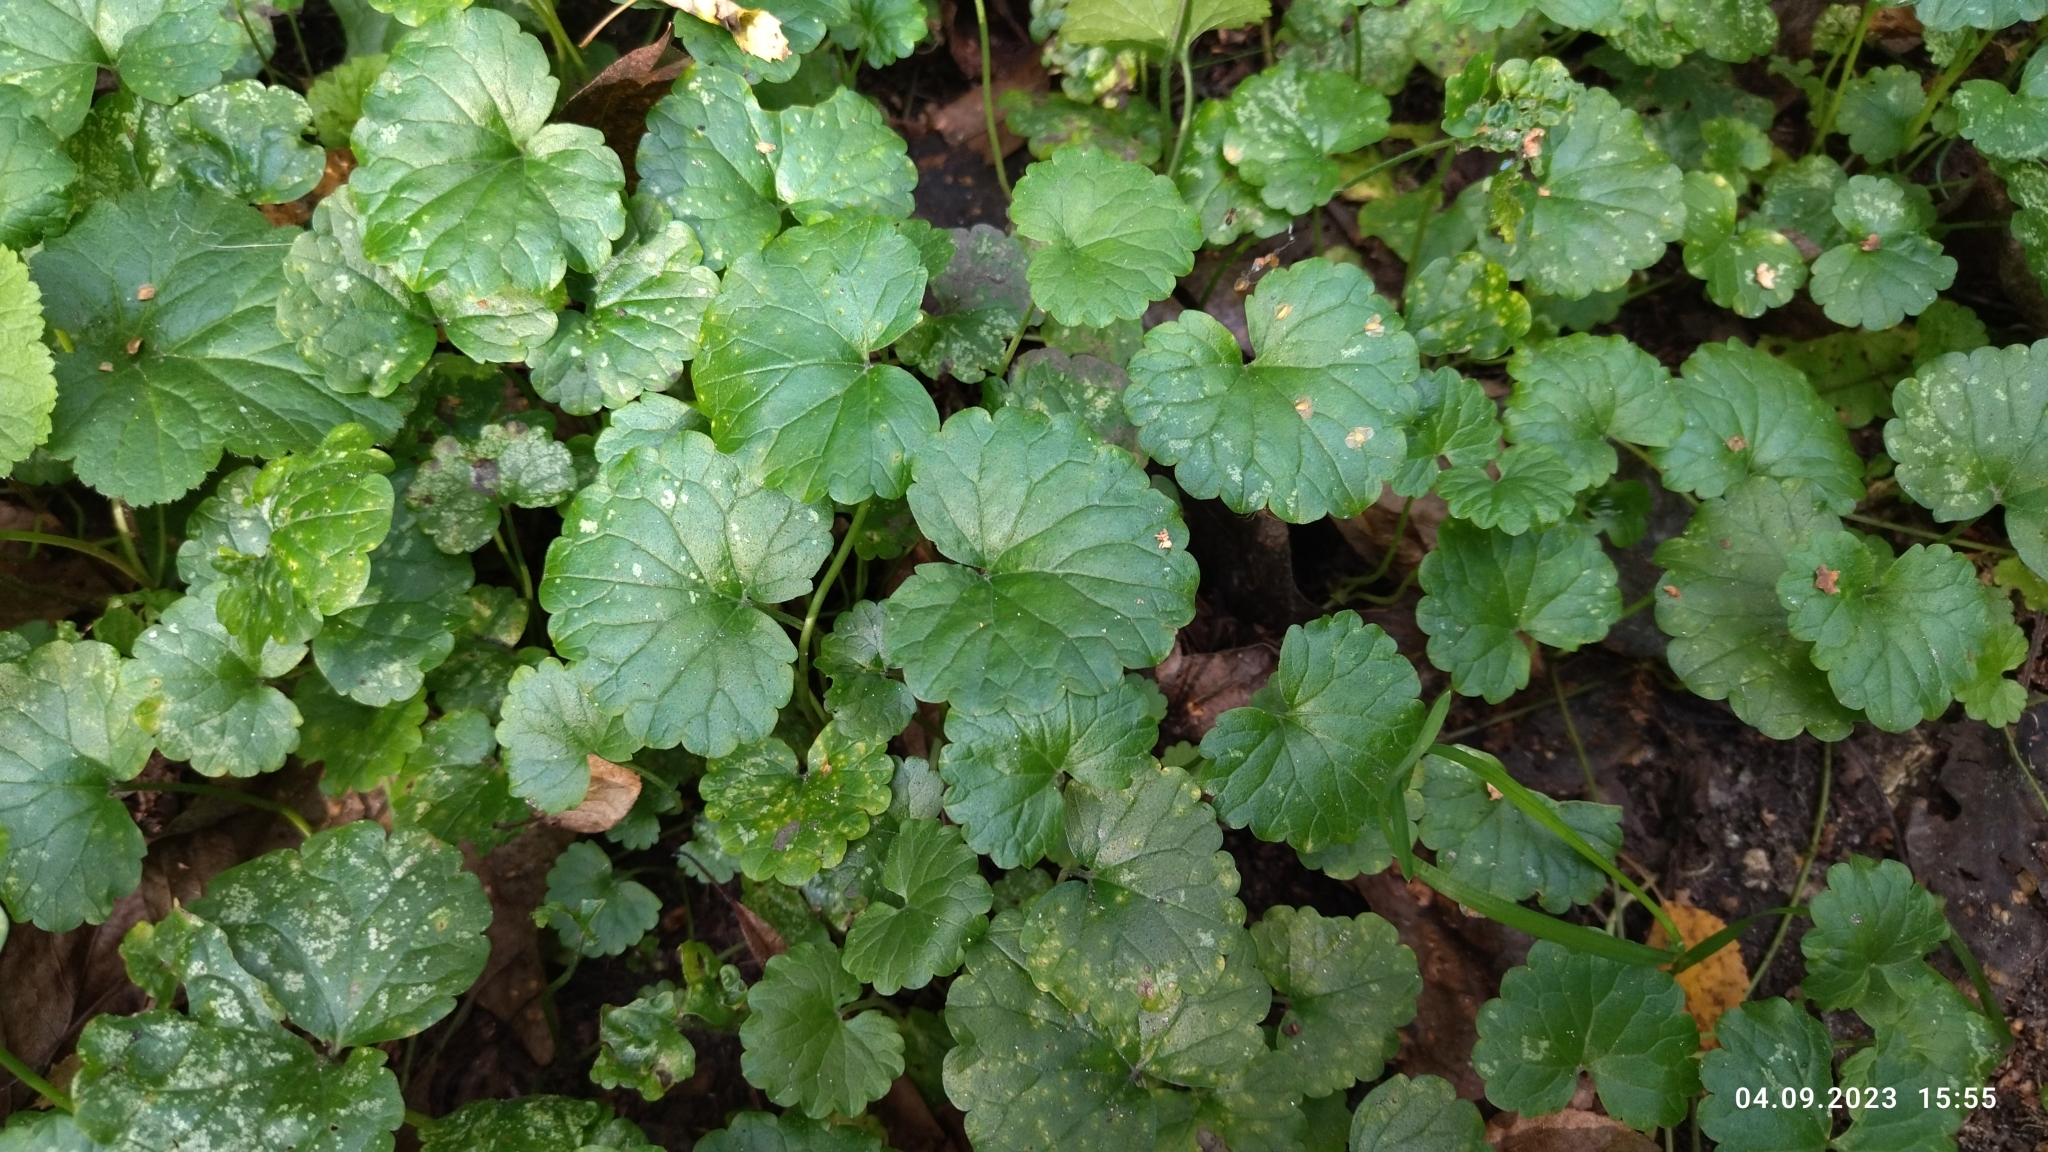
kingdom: Plantae
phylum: Tracheophyta
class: Magnoliopsida
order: Lamiales
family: Lamiaceae
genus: Glechoma
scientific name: Glechoma hederacea
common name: Ground ivy
